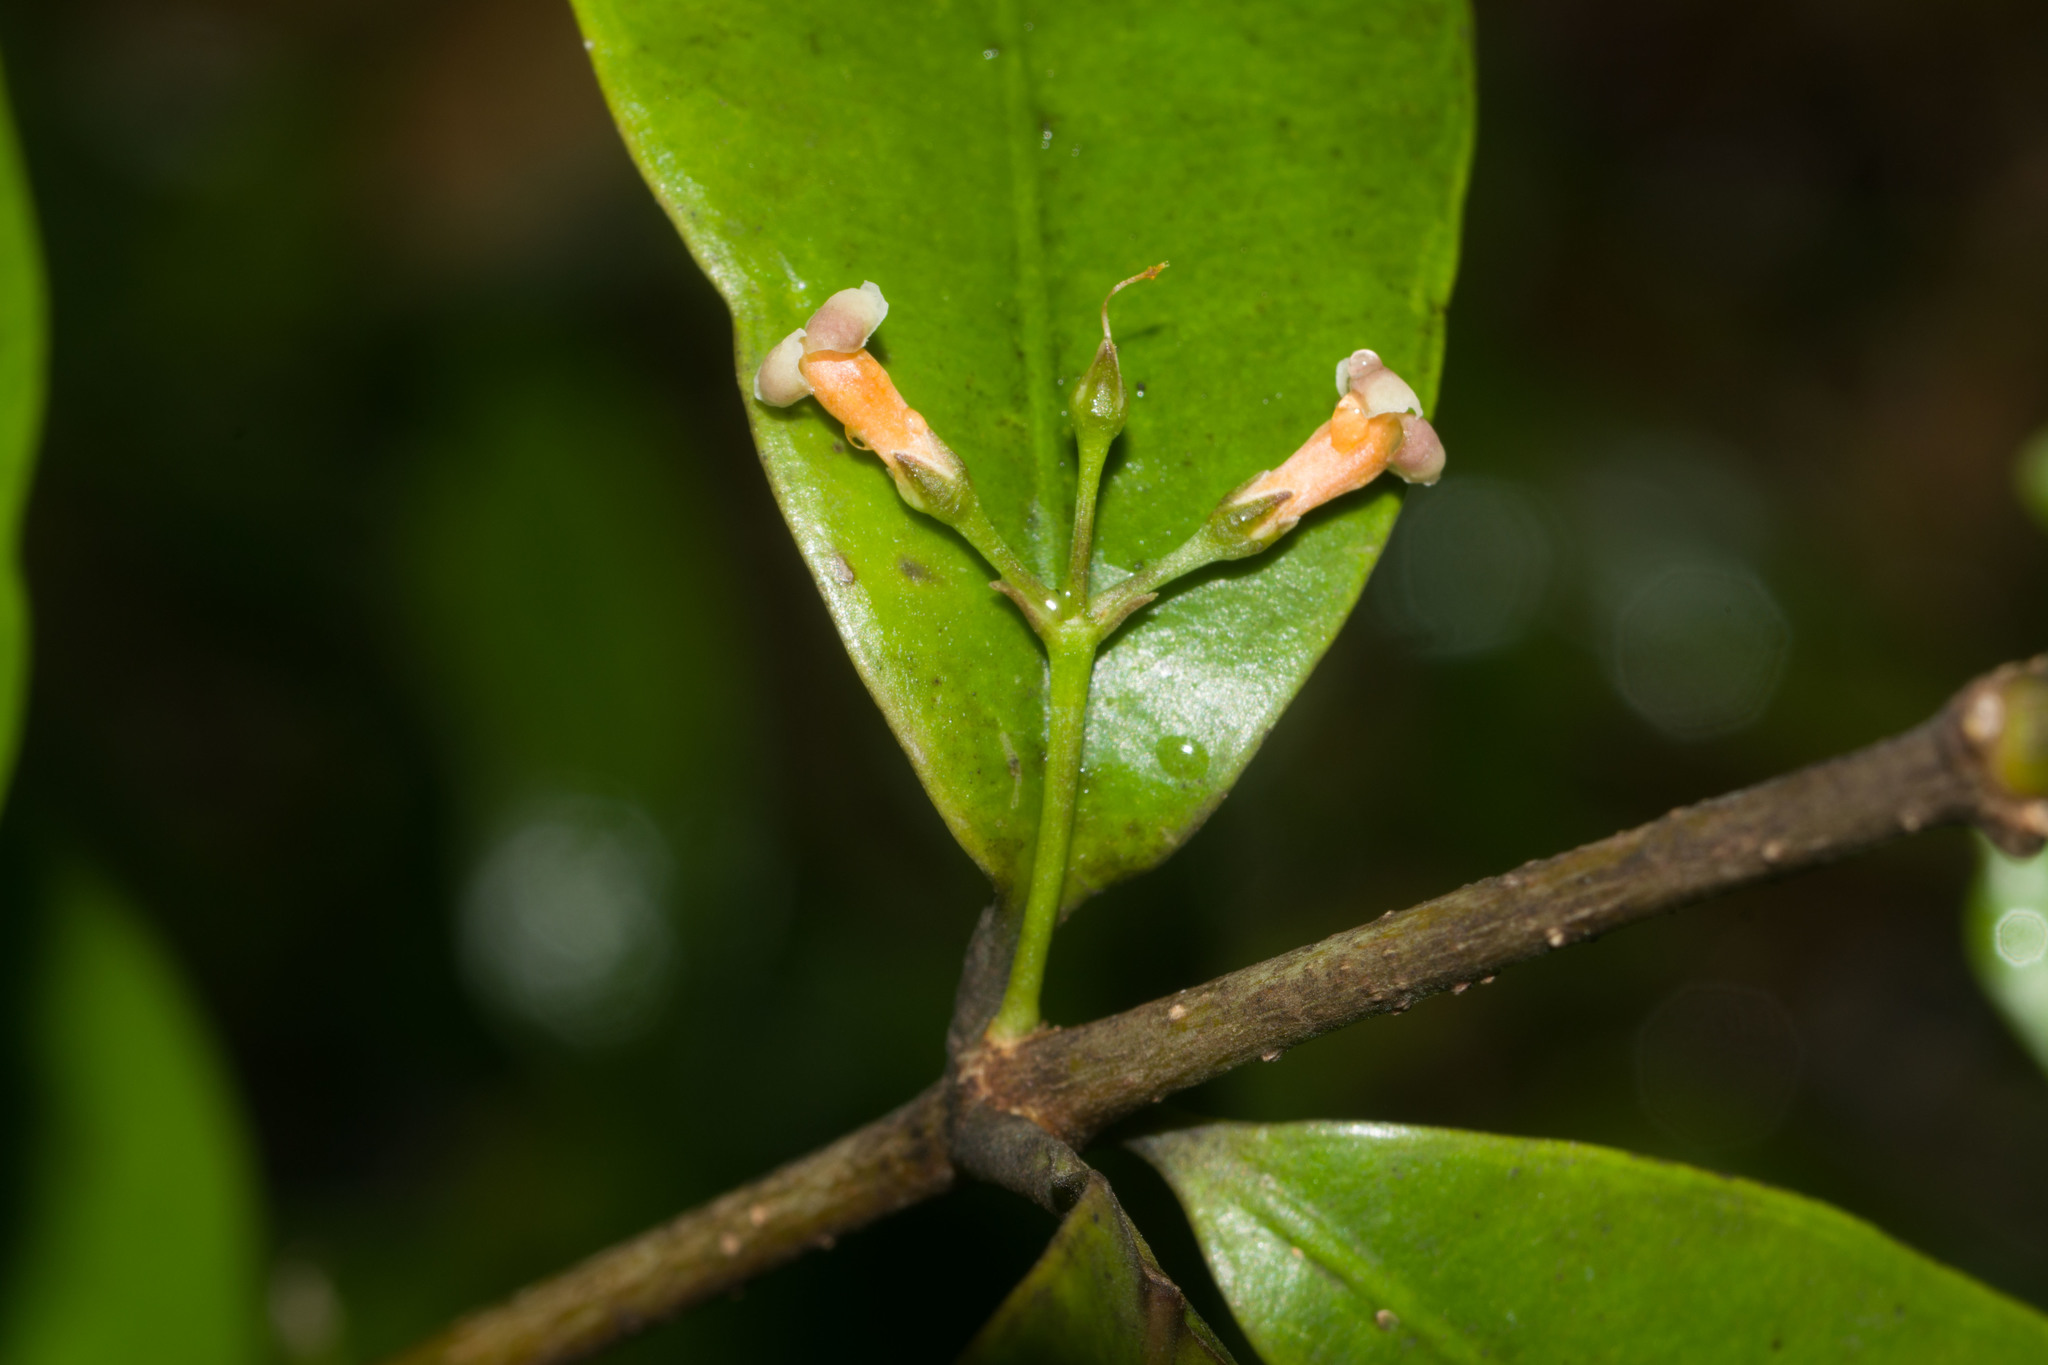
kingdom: Plantae
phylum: Tracheophyta
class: Magnoliopsida
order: Gentianales
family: Apocynaceae
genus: Alyxia
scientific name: Alyxia stellata
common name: Maile
